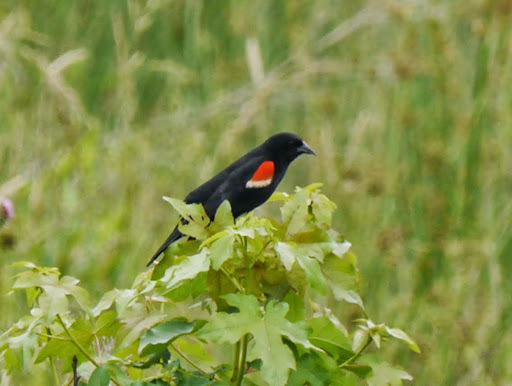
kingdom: Animalia
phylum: Chordata
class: Aves
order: Passeriformes
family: Icteridae
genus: Agelaius
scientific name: Agelaius phoeniceus
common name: Red-winged blackbird
